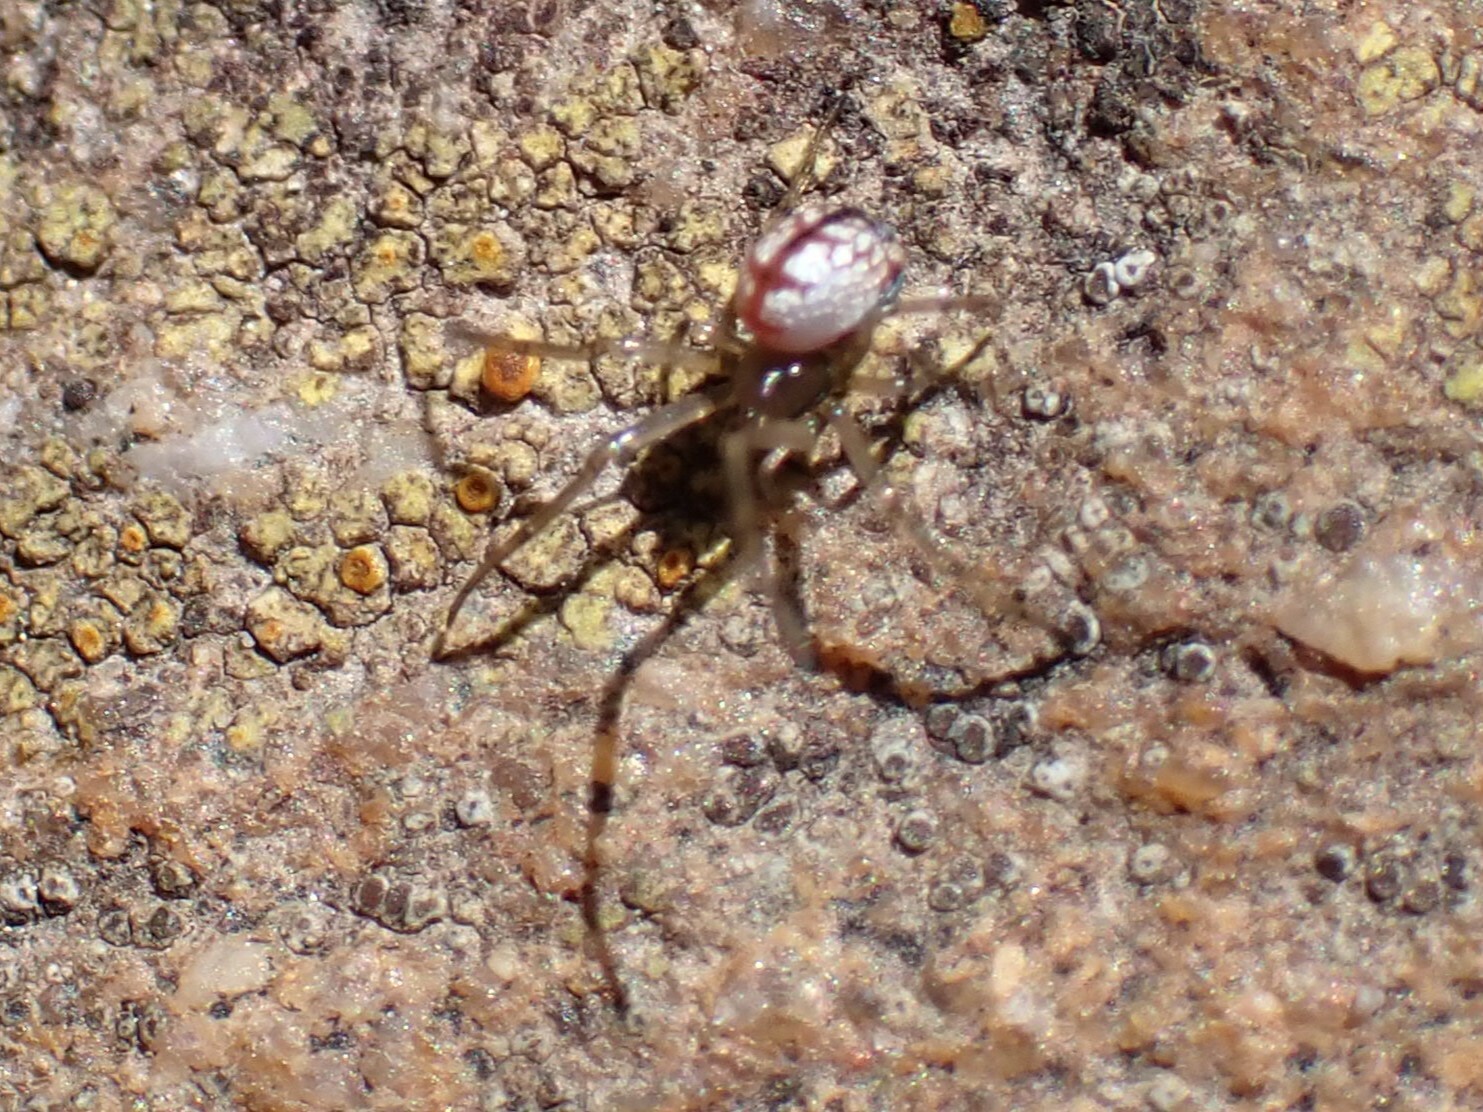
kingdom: Animalia
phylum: Arthropoda
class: Arachnida
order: Araneae
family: Tetragnathidae
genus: Leucauge
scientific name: Leucauge venusta
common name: Longjawed orb weavers
